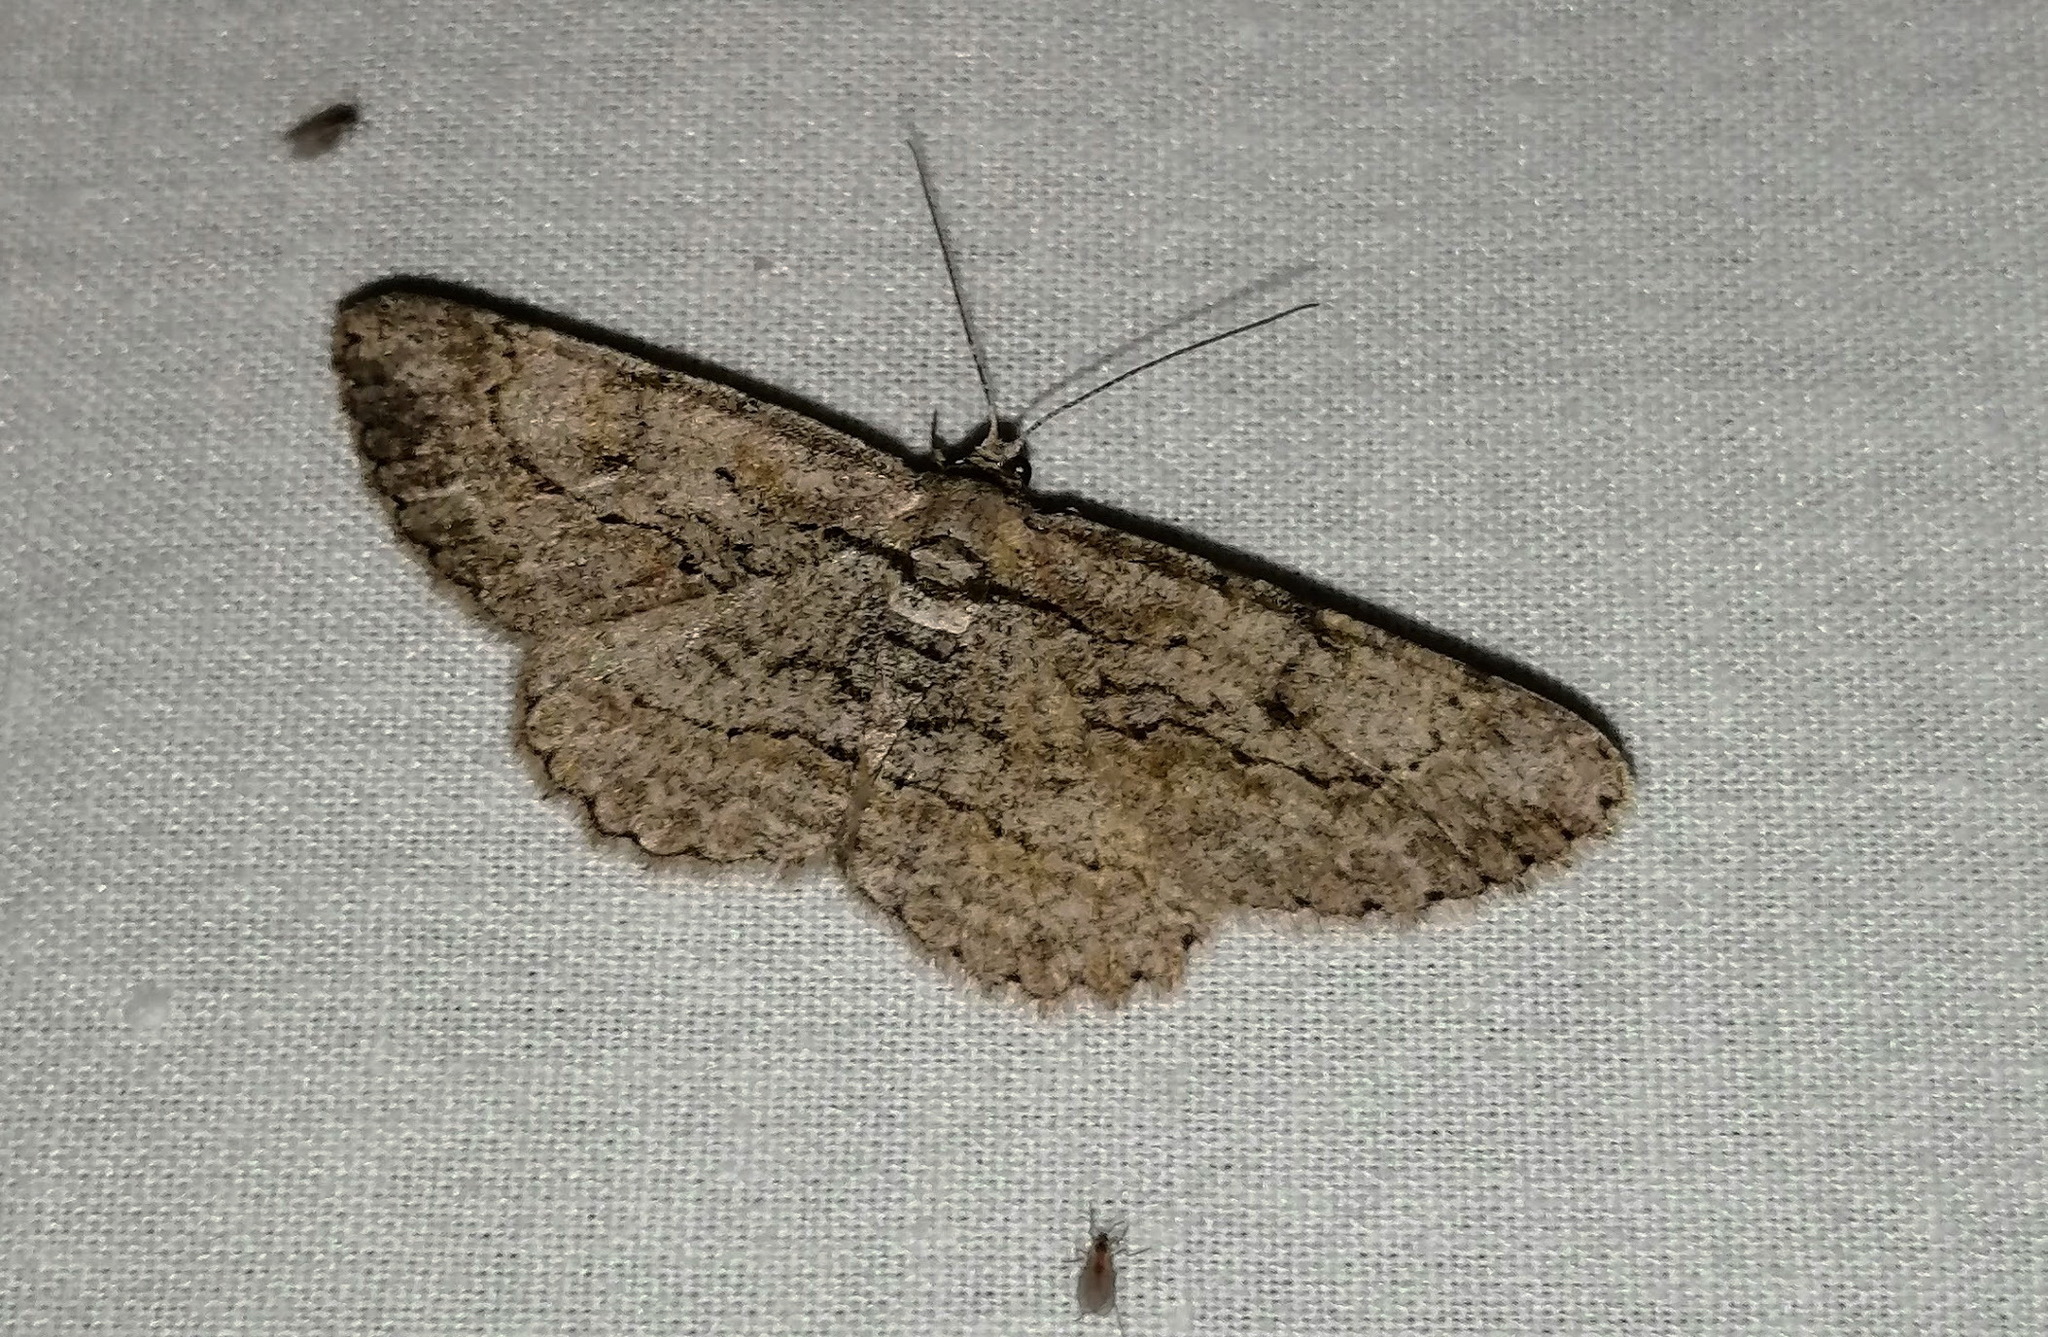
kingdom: Animalia
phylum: Arthropoda
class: Insecta
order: Lepidoptera
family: Geometridae
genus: Anavitrinella
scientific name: Anavitrinella pampinaria
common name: Common gray
